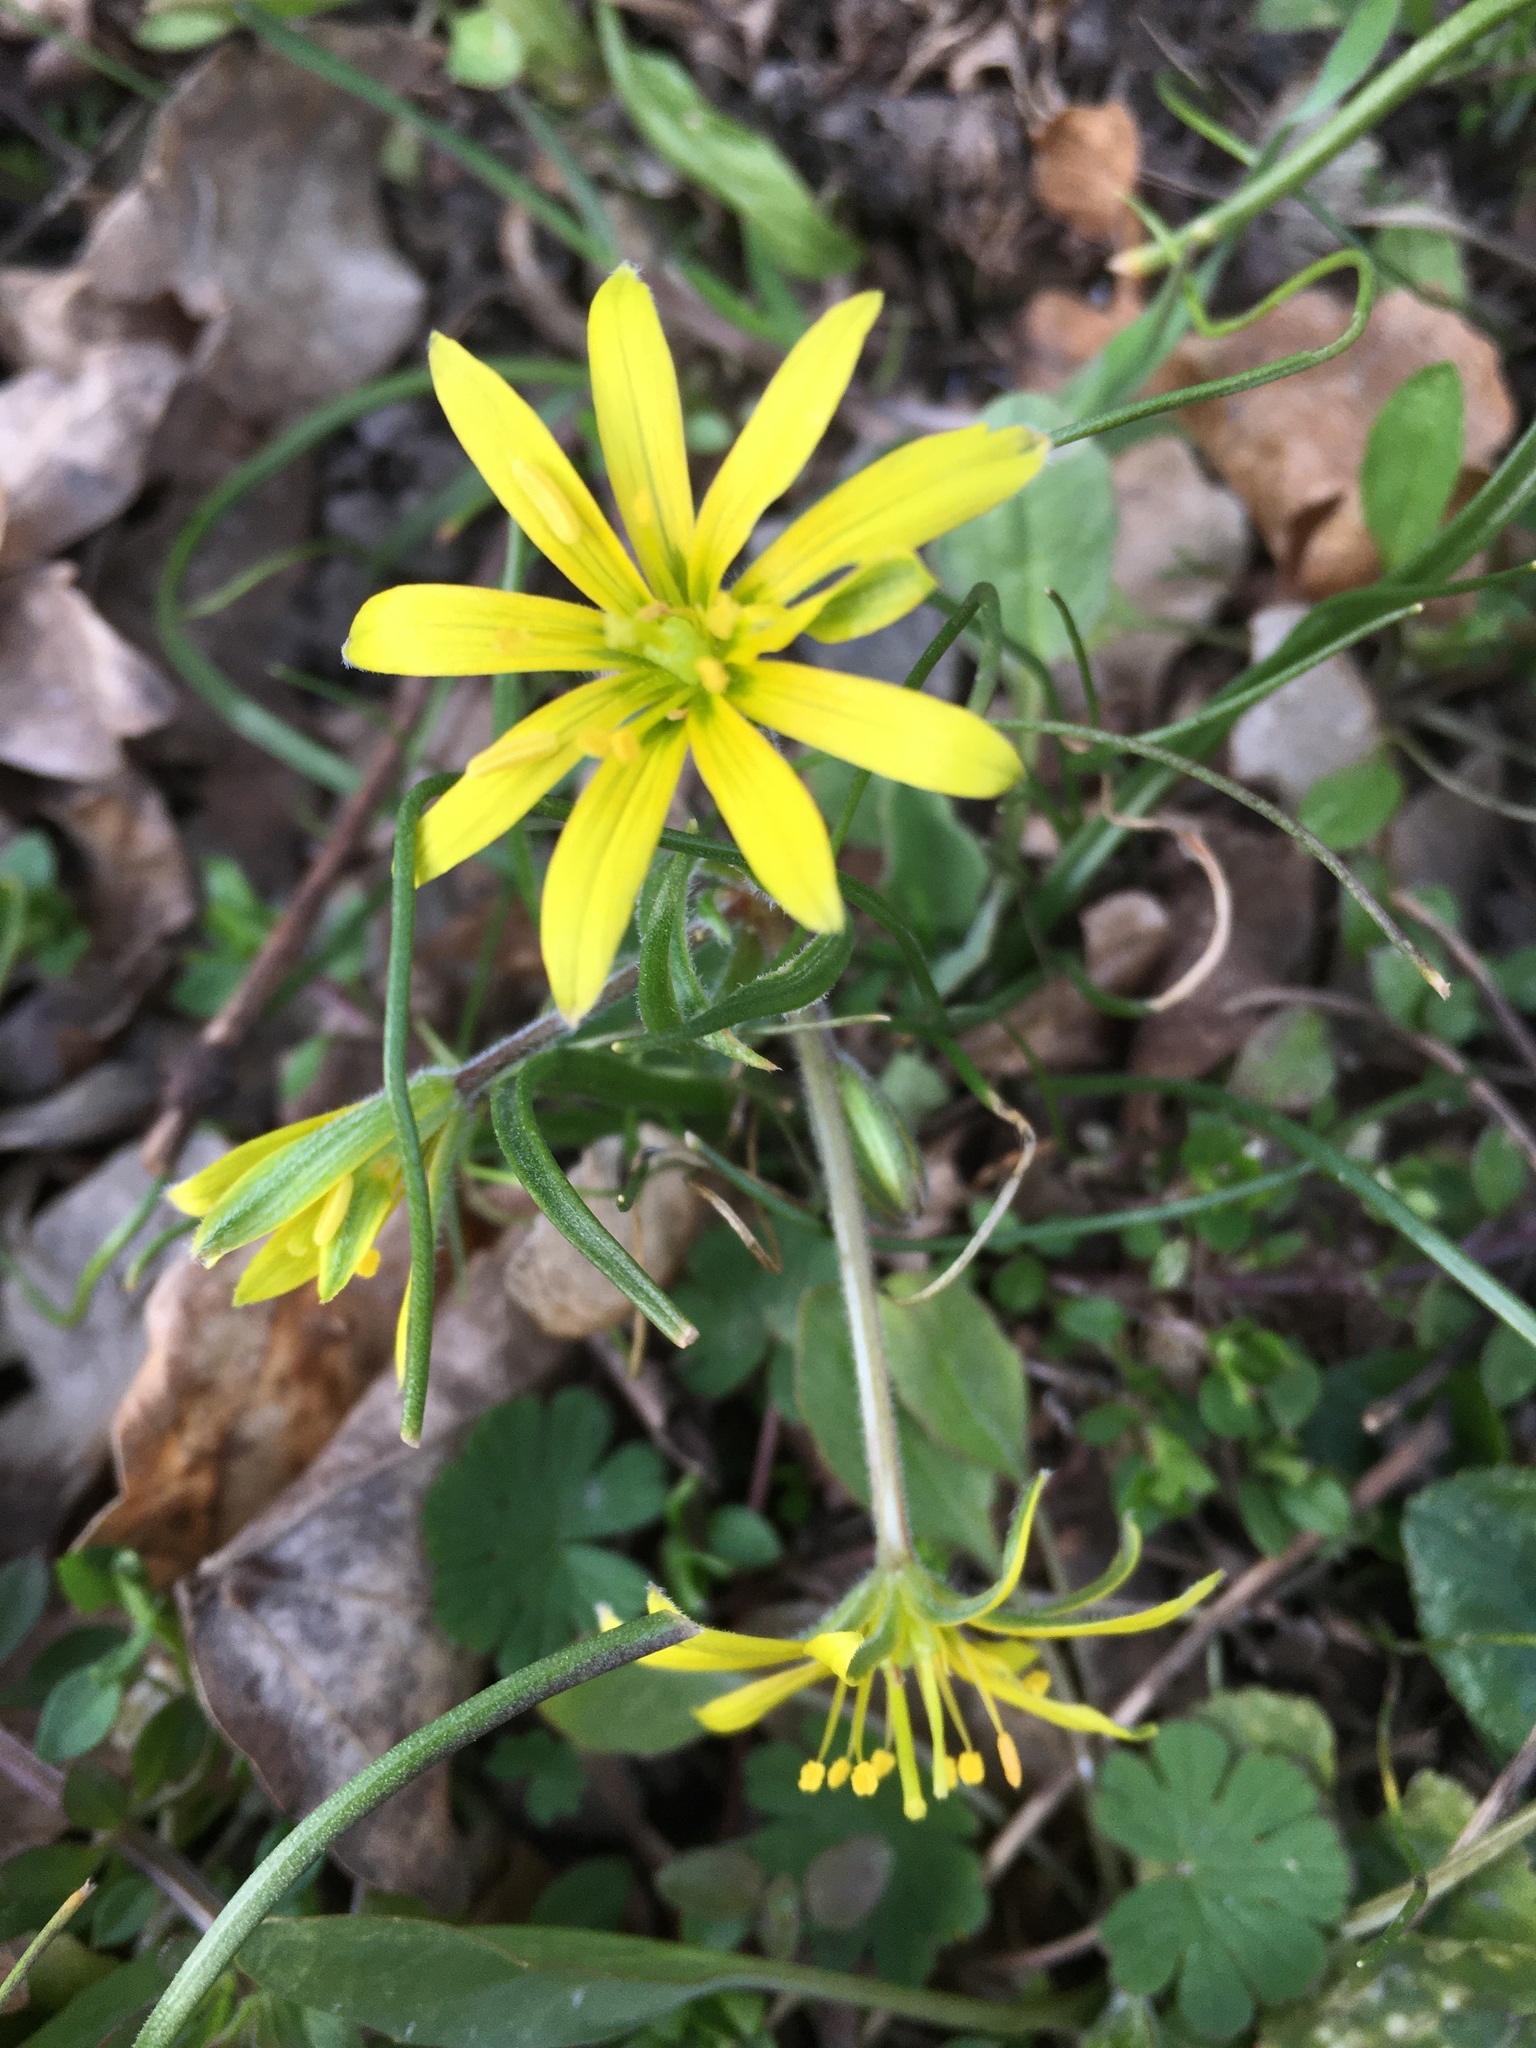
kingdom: Plantae
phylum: Tracheophyta
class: Liliopsida
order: Liliales
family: Liliaceae
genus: Gagea
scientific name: Gagea villosa
